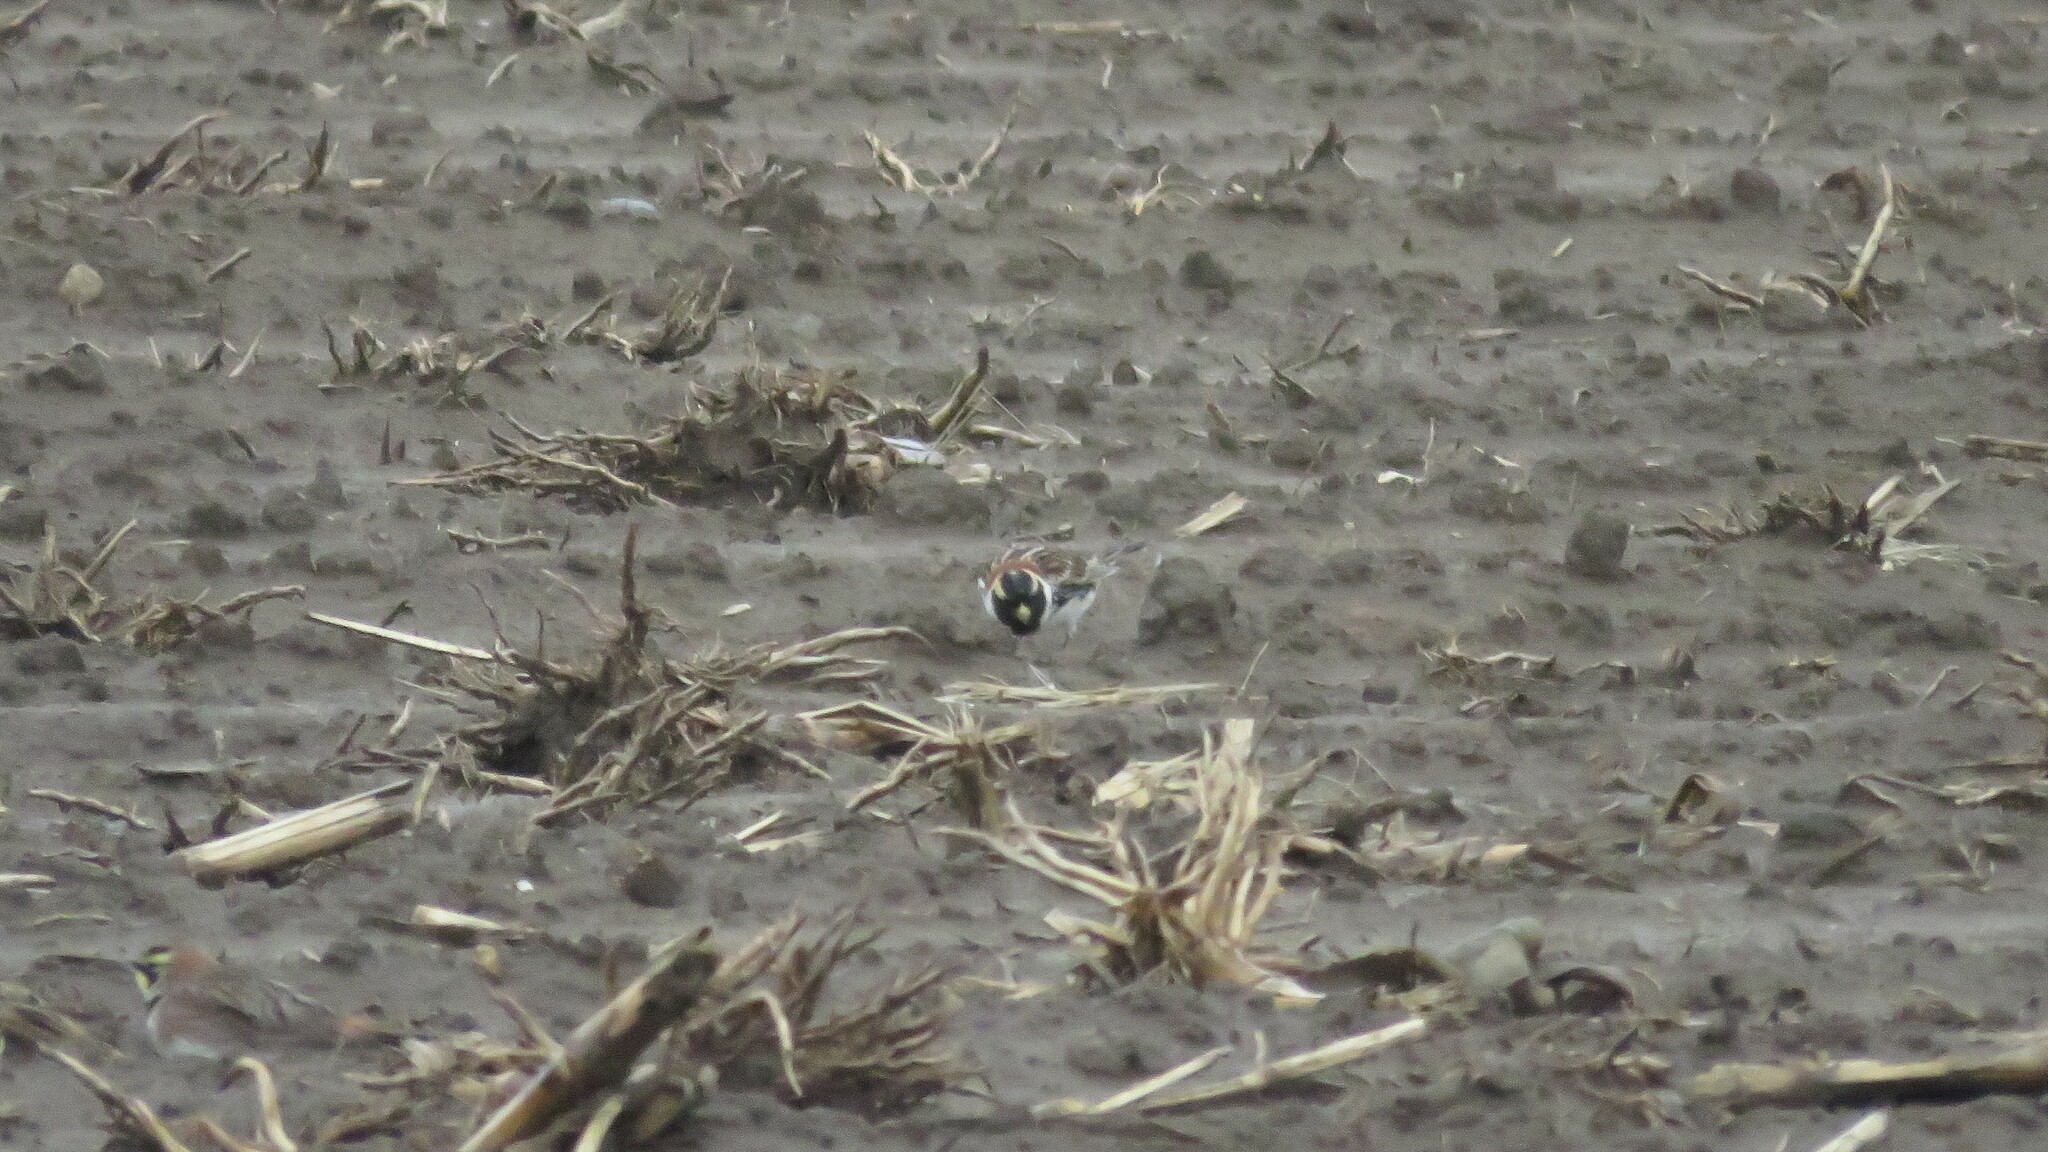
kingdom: Animalia
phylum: Chordata
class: Aves
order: Passeriformes
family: Calcariidae
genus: Calcarius
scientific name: Calcarius lapponicus
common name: Lapland longspur
